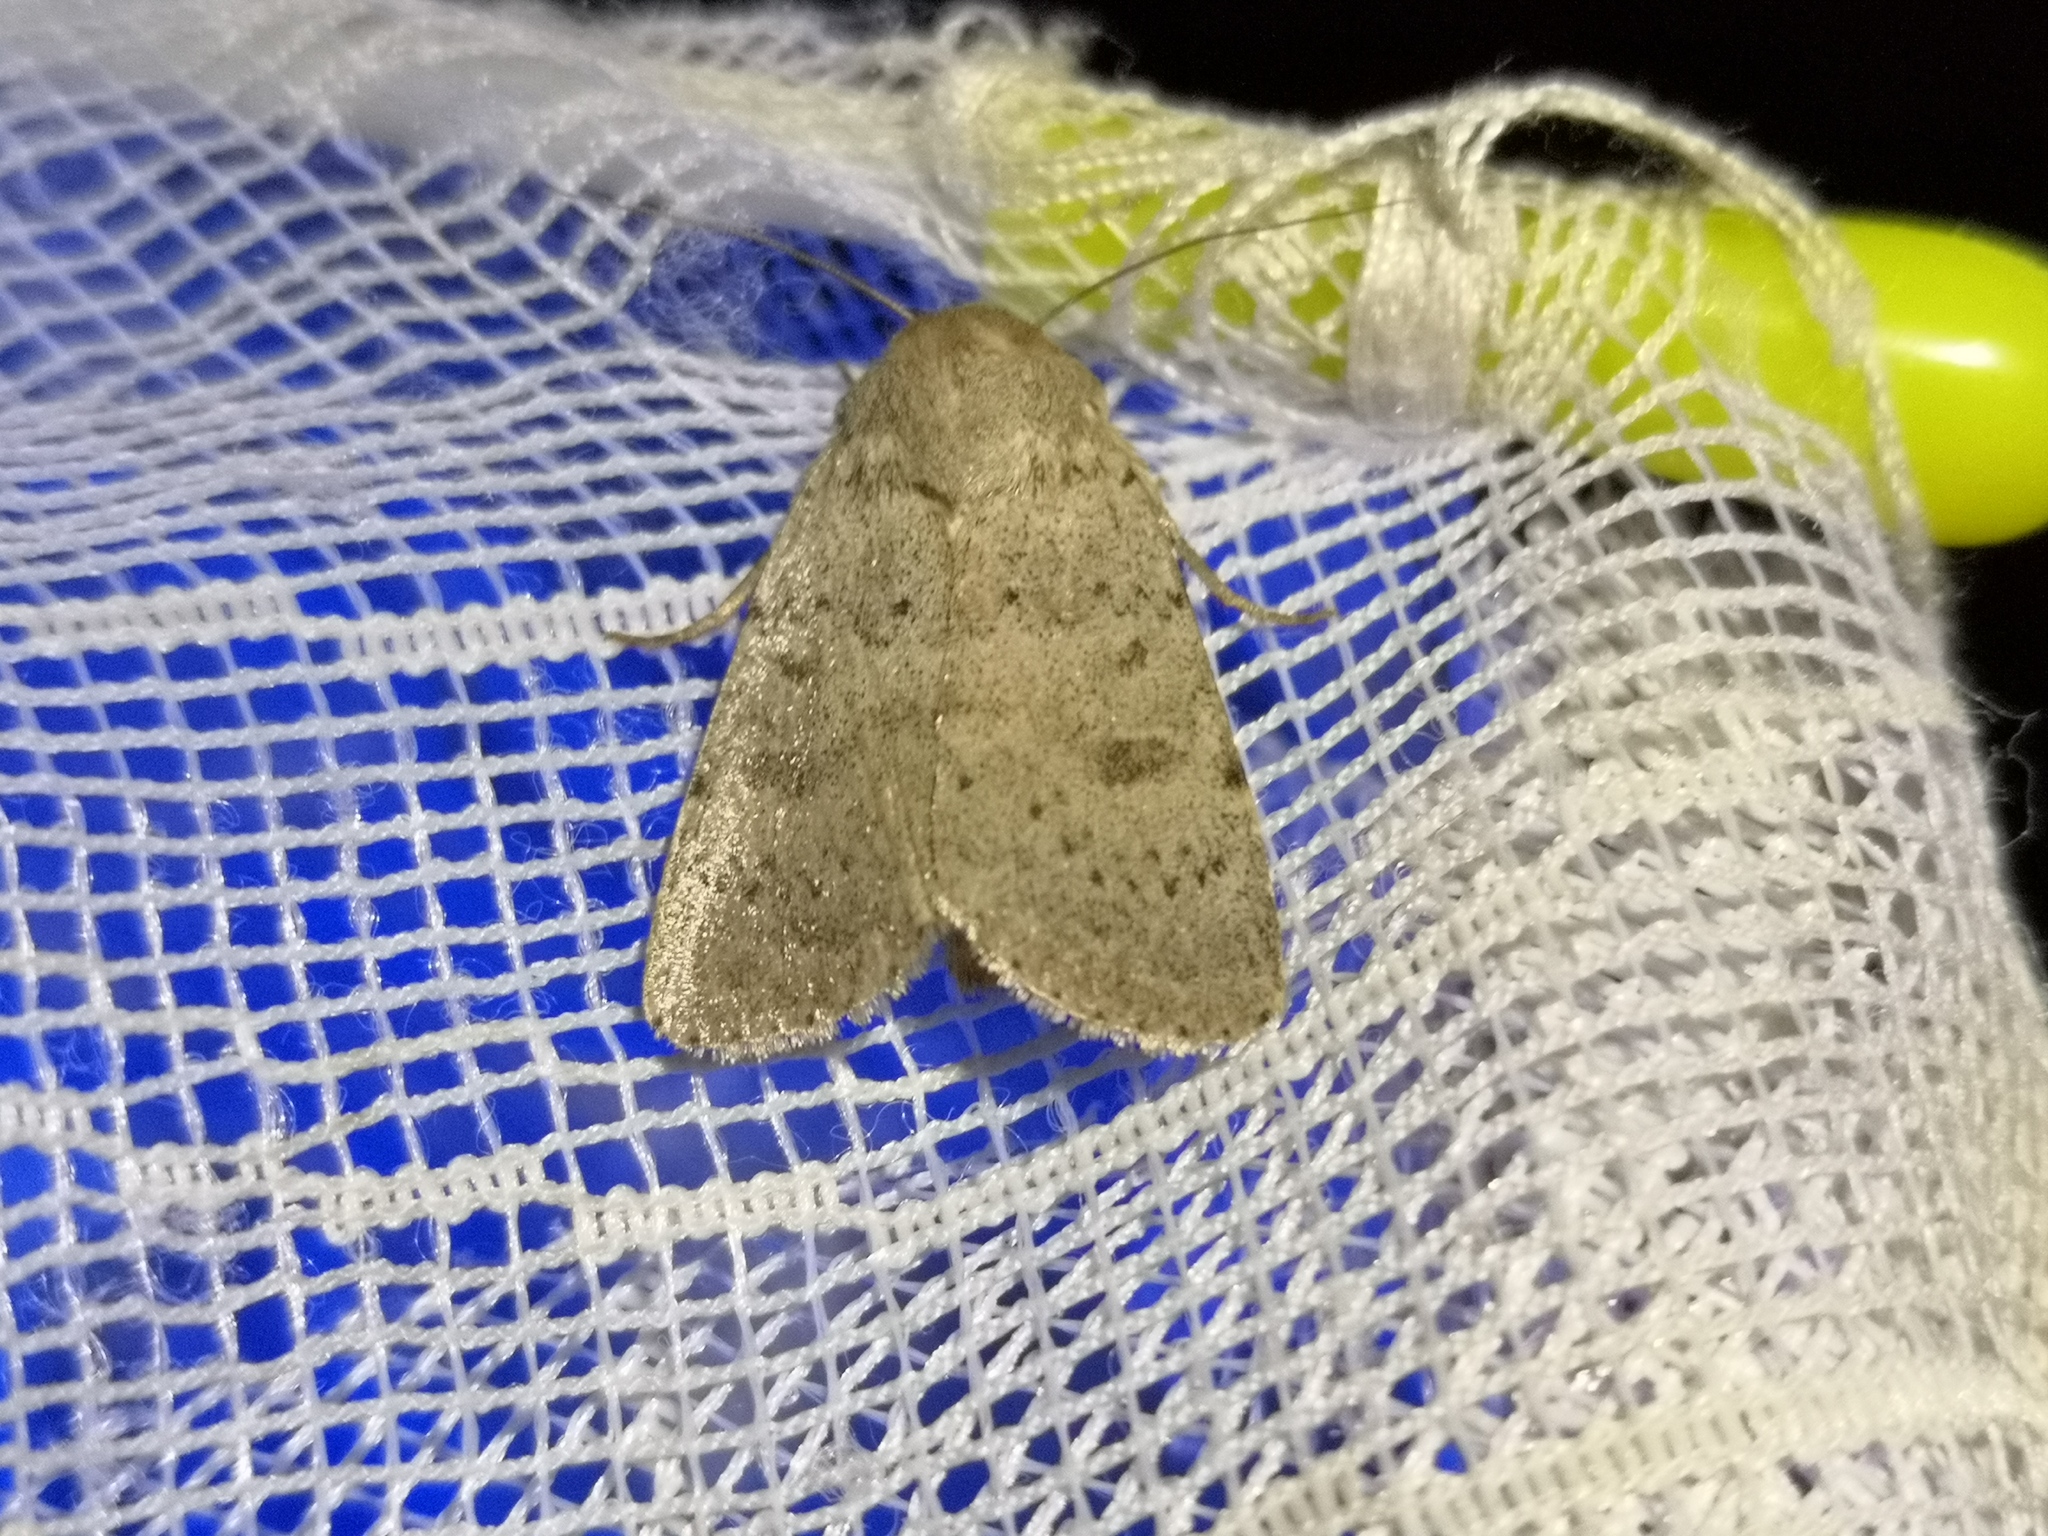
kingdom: Animalia
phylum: Arthropoda
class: Insecta
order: Lepidoptera
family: Noctuidae
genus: Hoplodrina
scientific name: Hoplodrina respersa
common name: Sprinkled rustic
